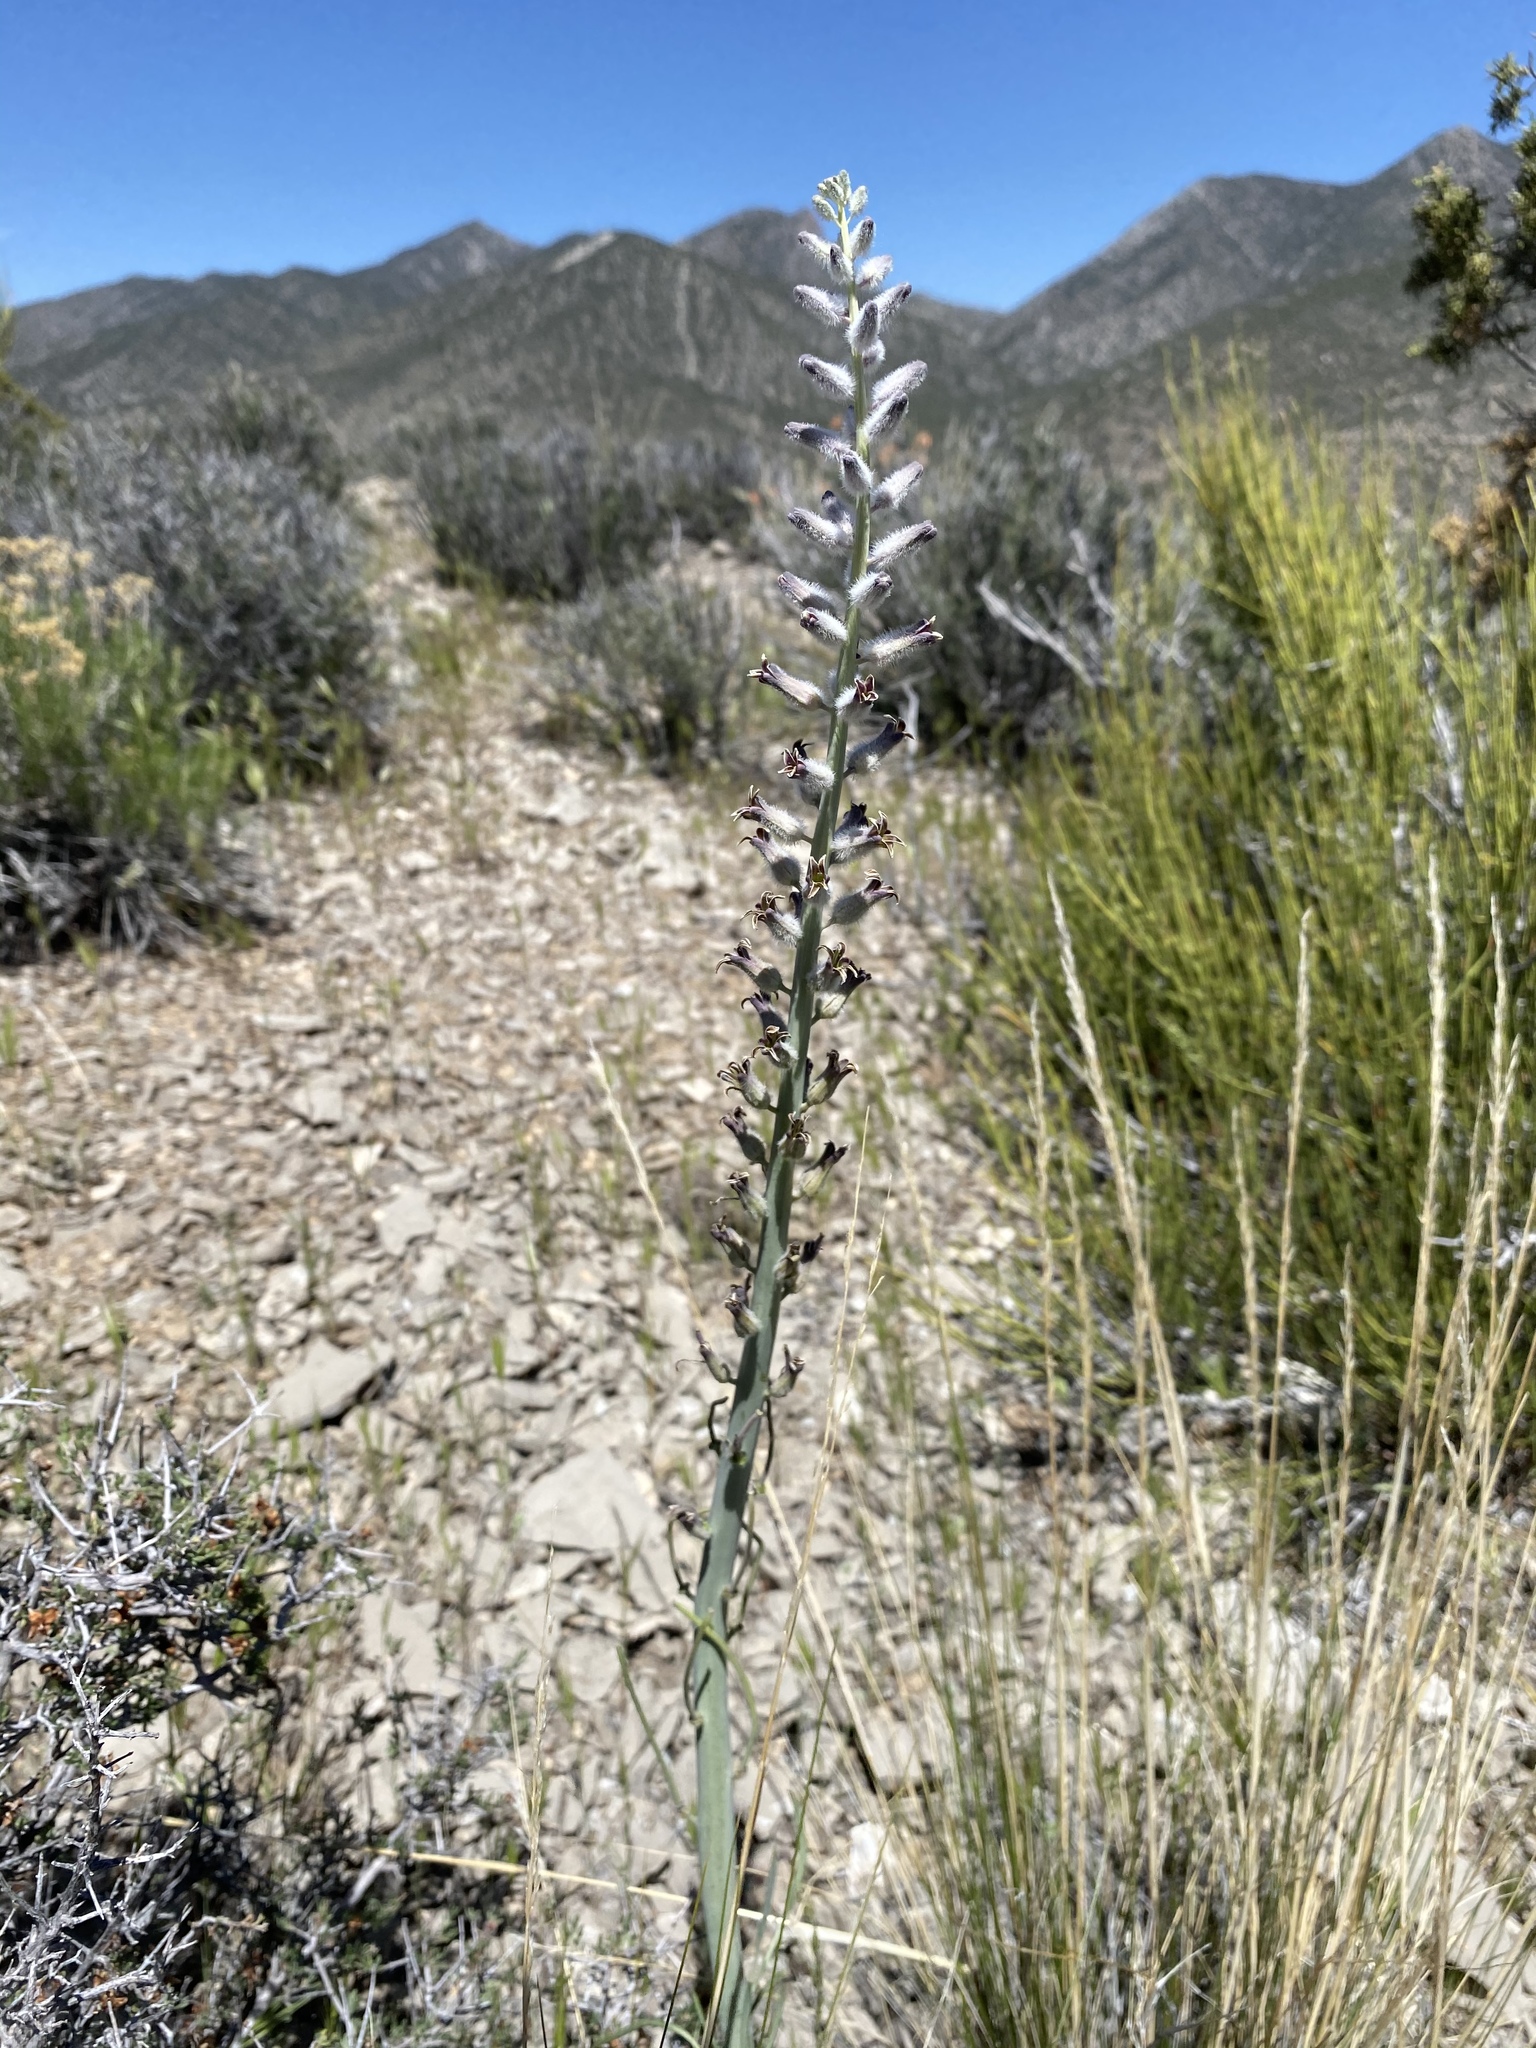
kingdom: Plantae
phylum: Tracheophyta
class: Magnoliopsida
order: Brassicales
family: Brassicaceae
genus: Streptanthus
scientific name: Streptanthus crassicaulis
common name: Thick-stem wild cabbage
